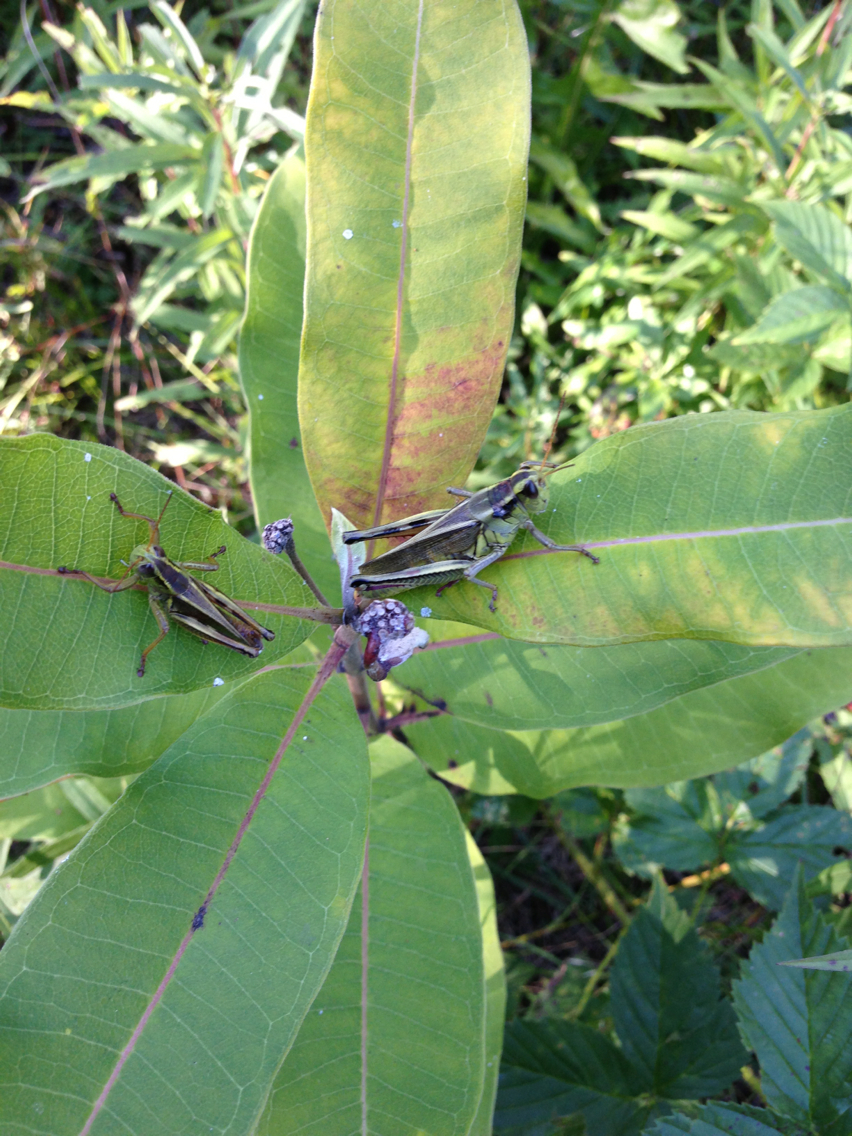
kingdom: Animalia
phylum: Arthropoda
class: Insecta
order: Orthoptera
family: Acrididae
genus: Melanoplus
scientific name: Melanoplus bivittatus
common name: Two-striped grasshopper
